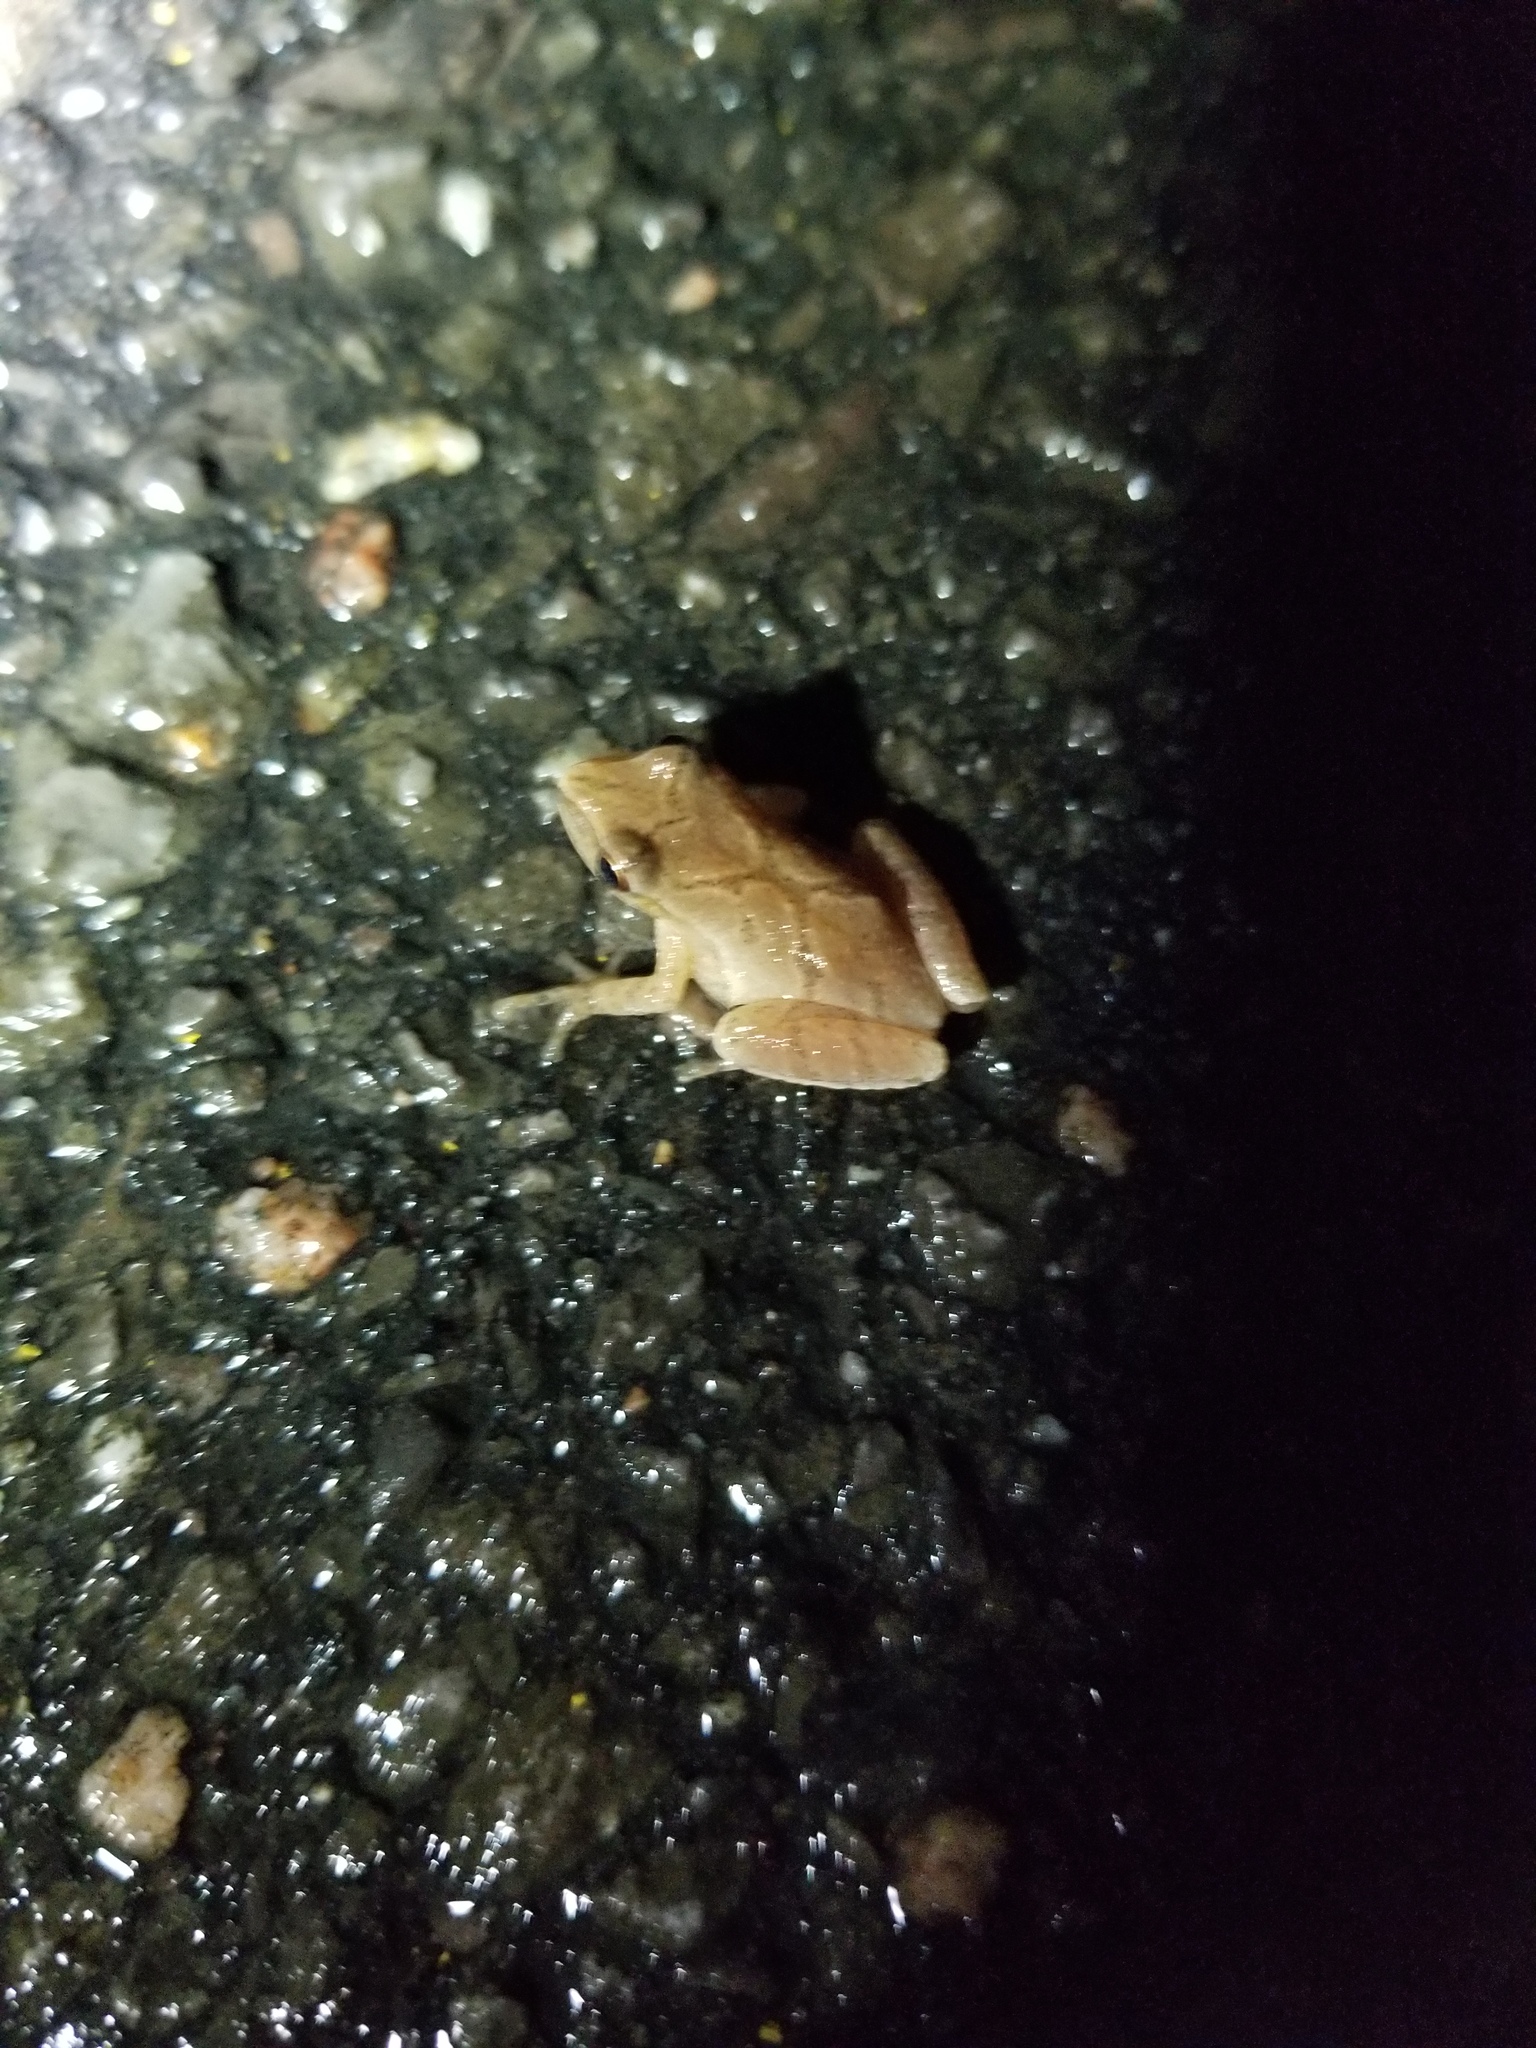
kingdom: Animalia
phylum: Chordata
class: Amphibia
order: Anura
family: Hylidae
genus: Pseudacris
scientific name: Pseudacris crucifer
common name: Spring peeper
